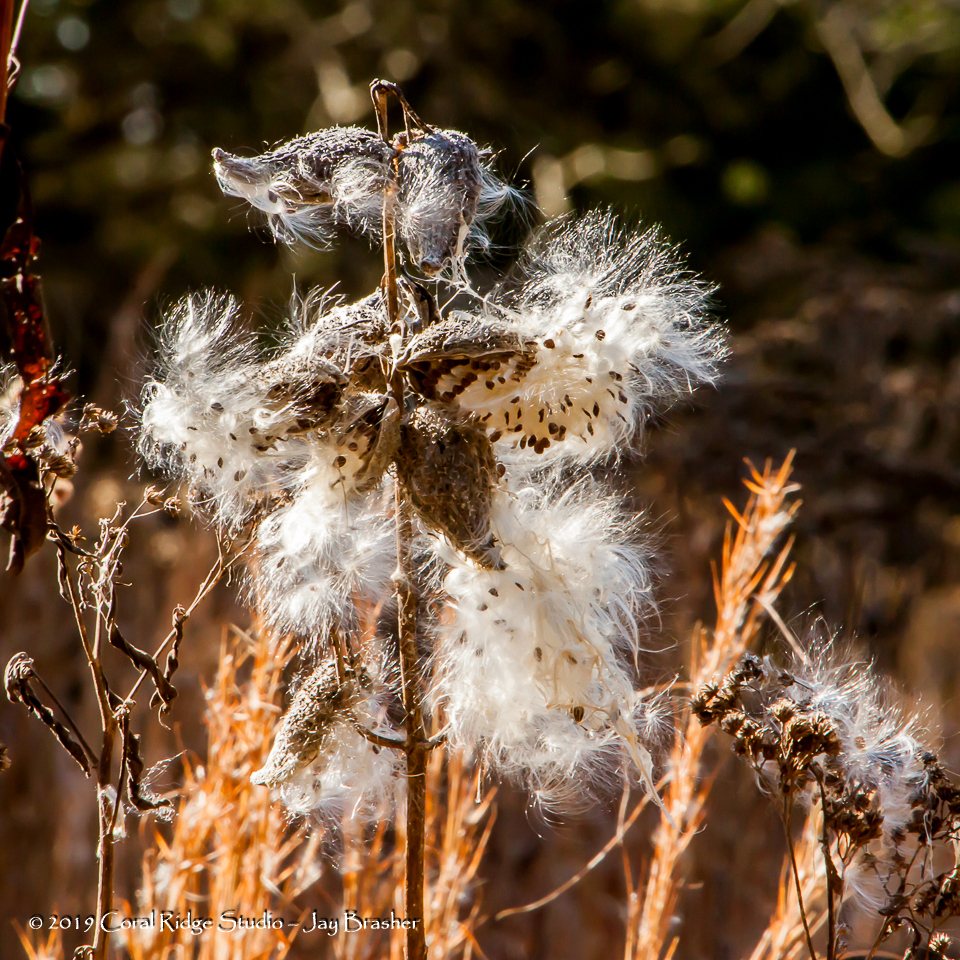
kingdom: Plantae
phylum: Tracheophyta
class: Magnoliopsida
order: Gentianales
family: Apocynaceae
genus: Asclepias
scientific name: Asclepias syriaca
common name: Common milkweed
